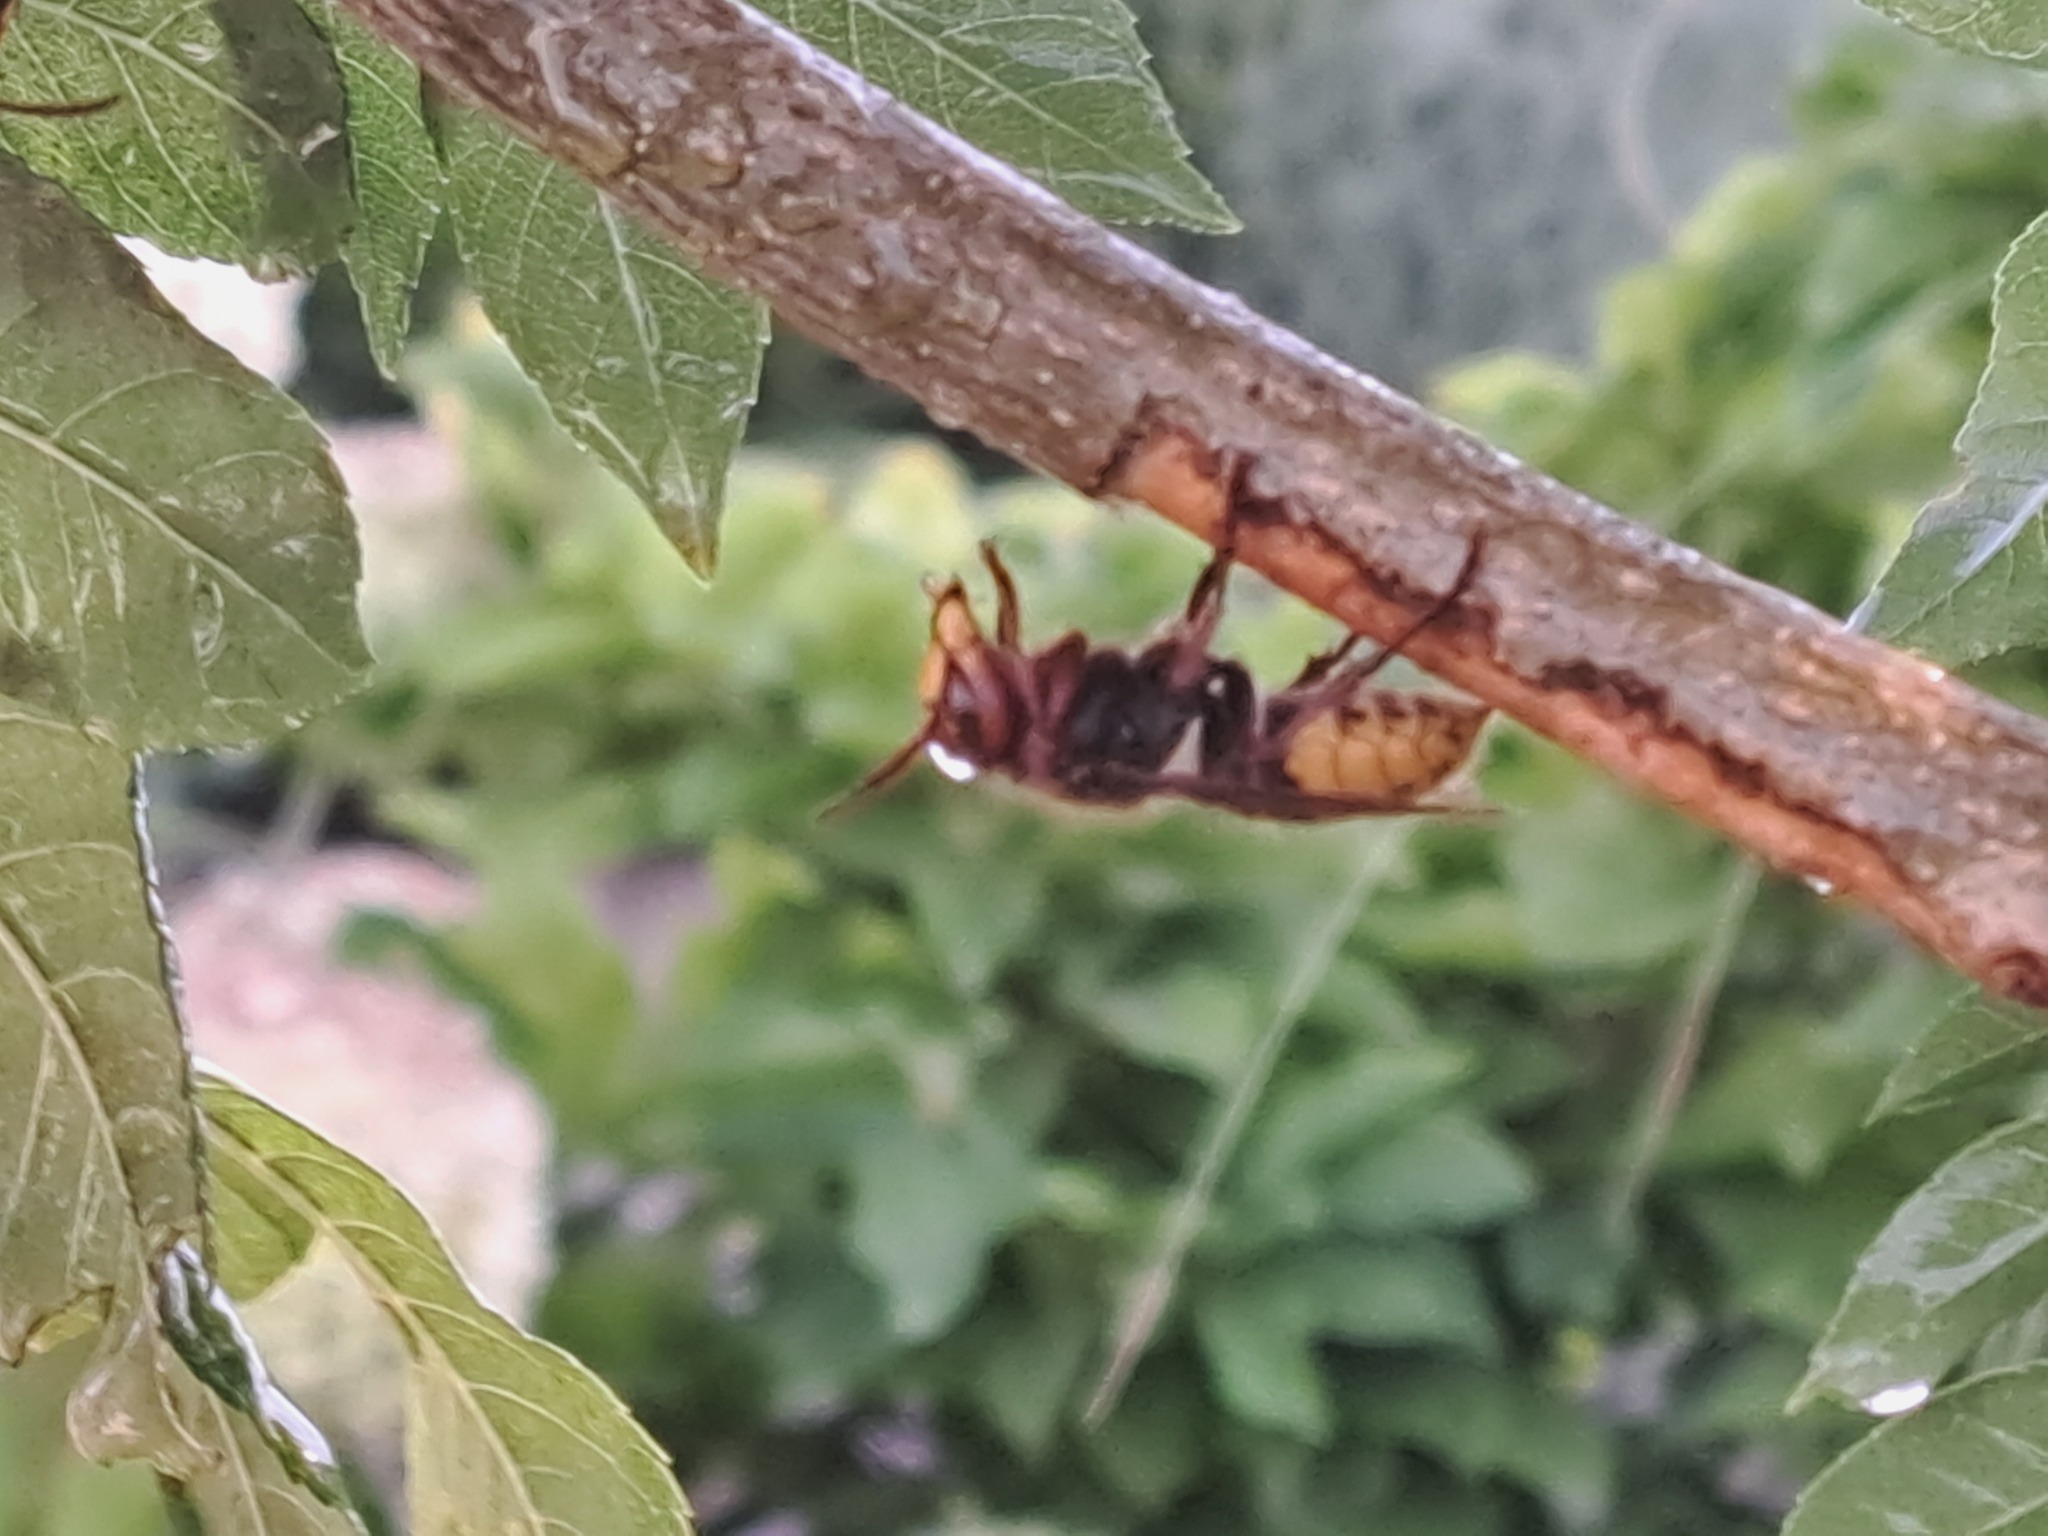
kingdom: Animalia
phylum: Arthropoda
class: Insecta
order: Hymenoptera
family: Vespidae
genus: Vespa
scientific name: Vespa crabro
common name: Hornet
